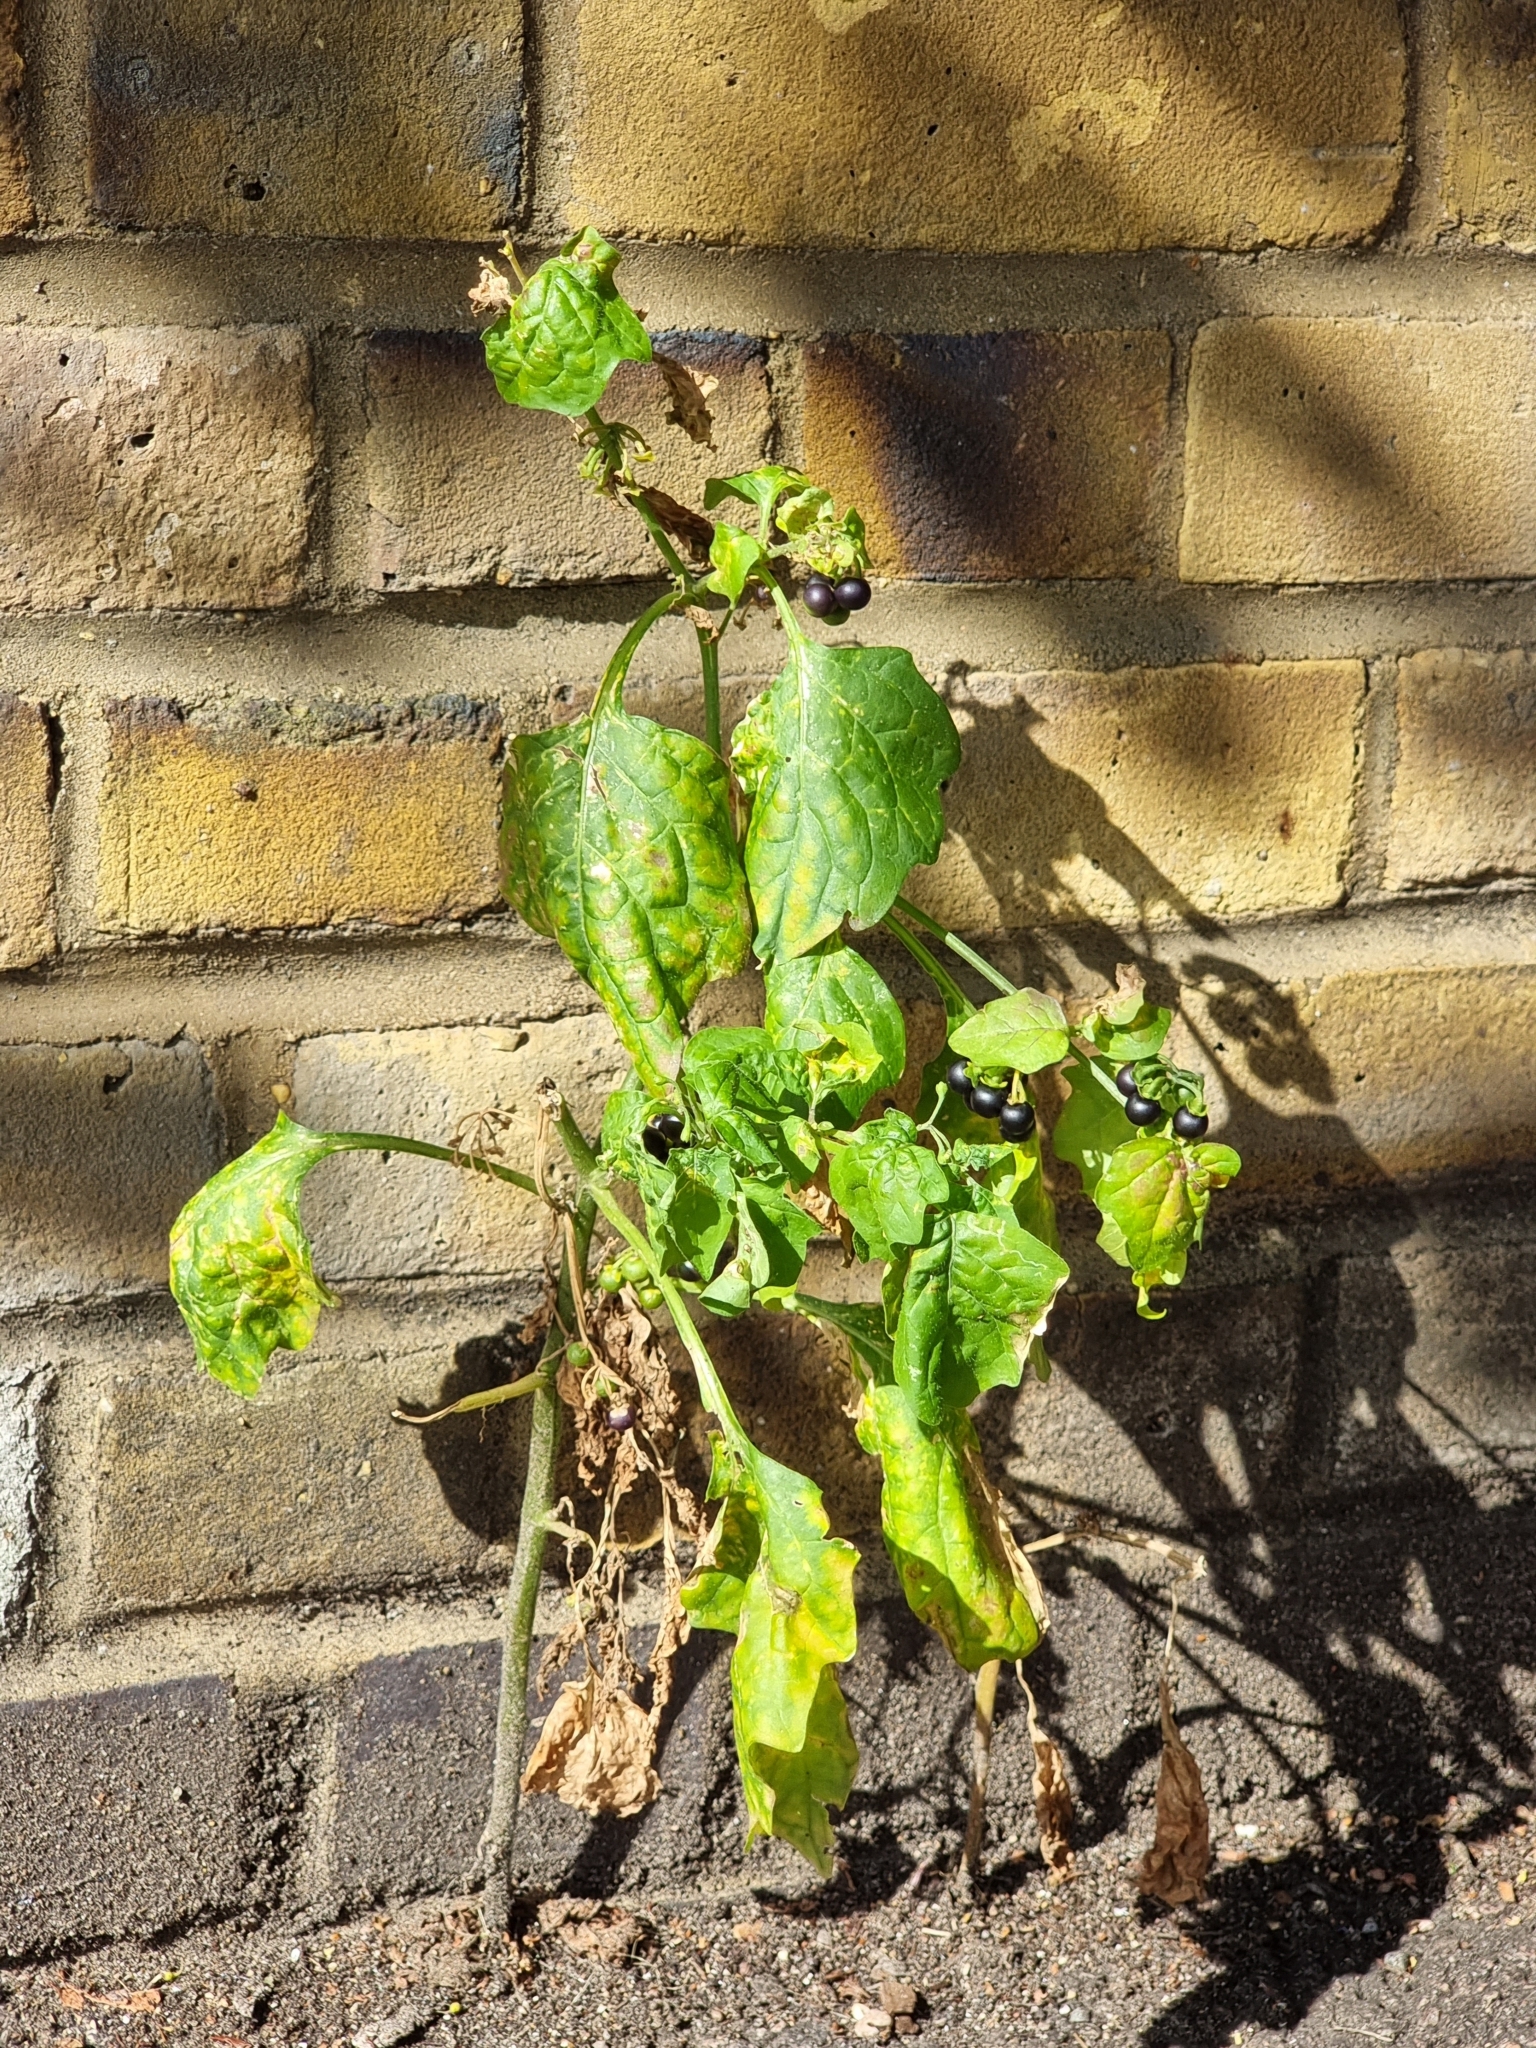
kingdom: Plantae
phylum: Tracheophyta
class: Magnoliopsida
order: Solanales
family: Solanaceae
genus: Solanum
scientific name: Solanum nigrum
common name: Black nightshade
